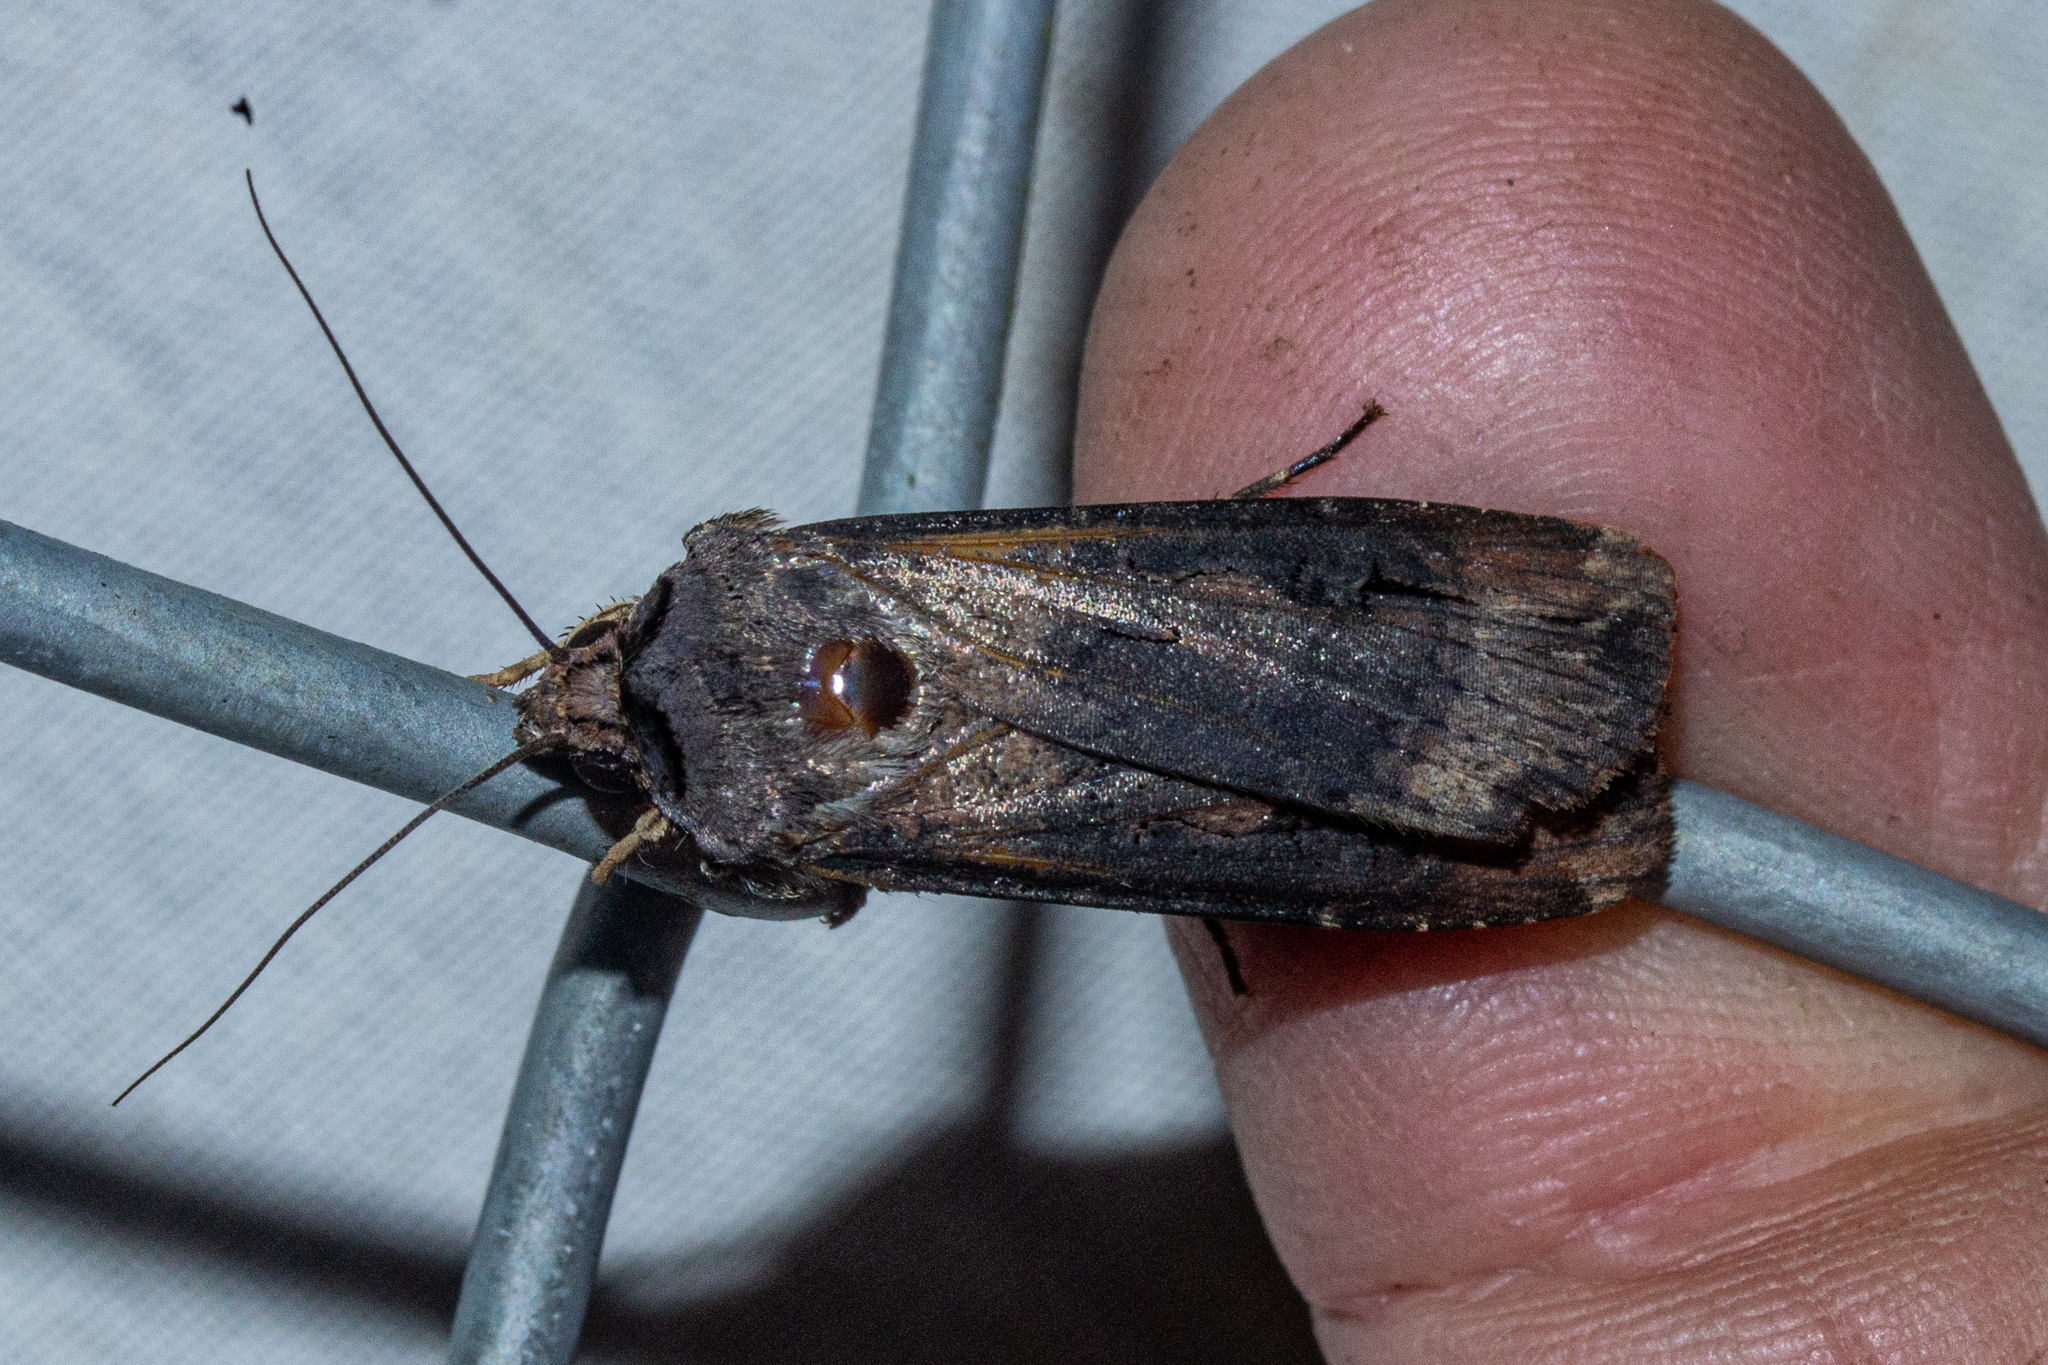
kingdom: Animalia
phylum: Arthropoda
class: Insecta
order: Lepidoptera
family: Noctuidae
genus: Agrotis
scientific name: Agrotis ipsilon
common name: Dark sword-grass
